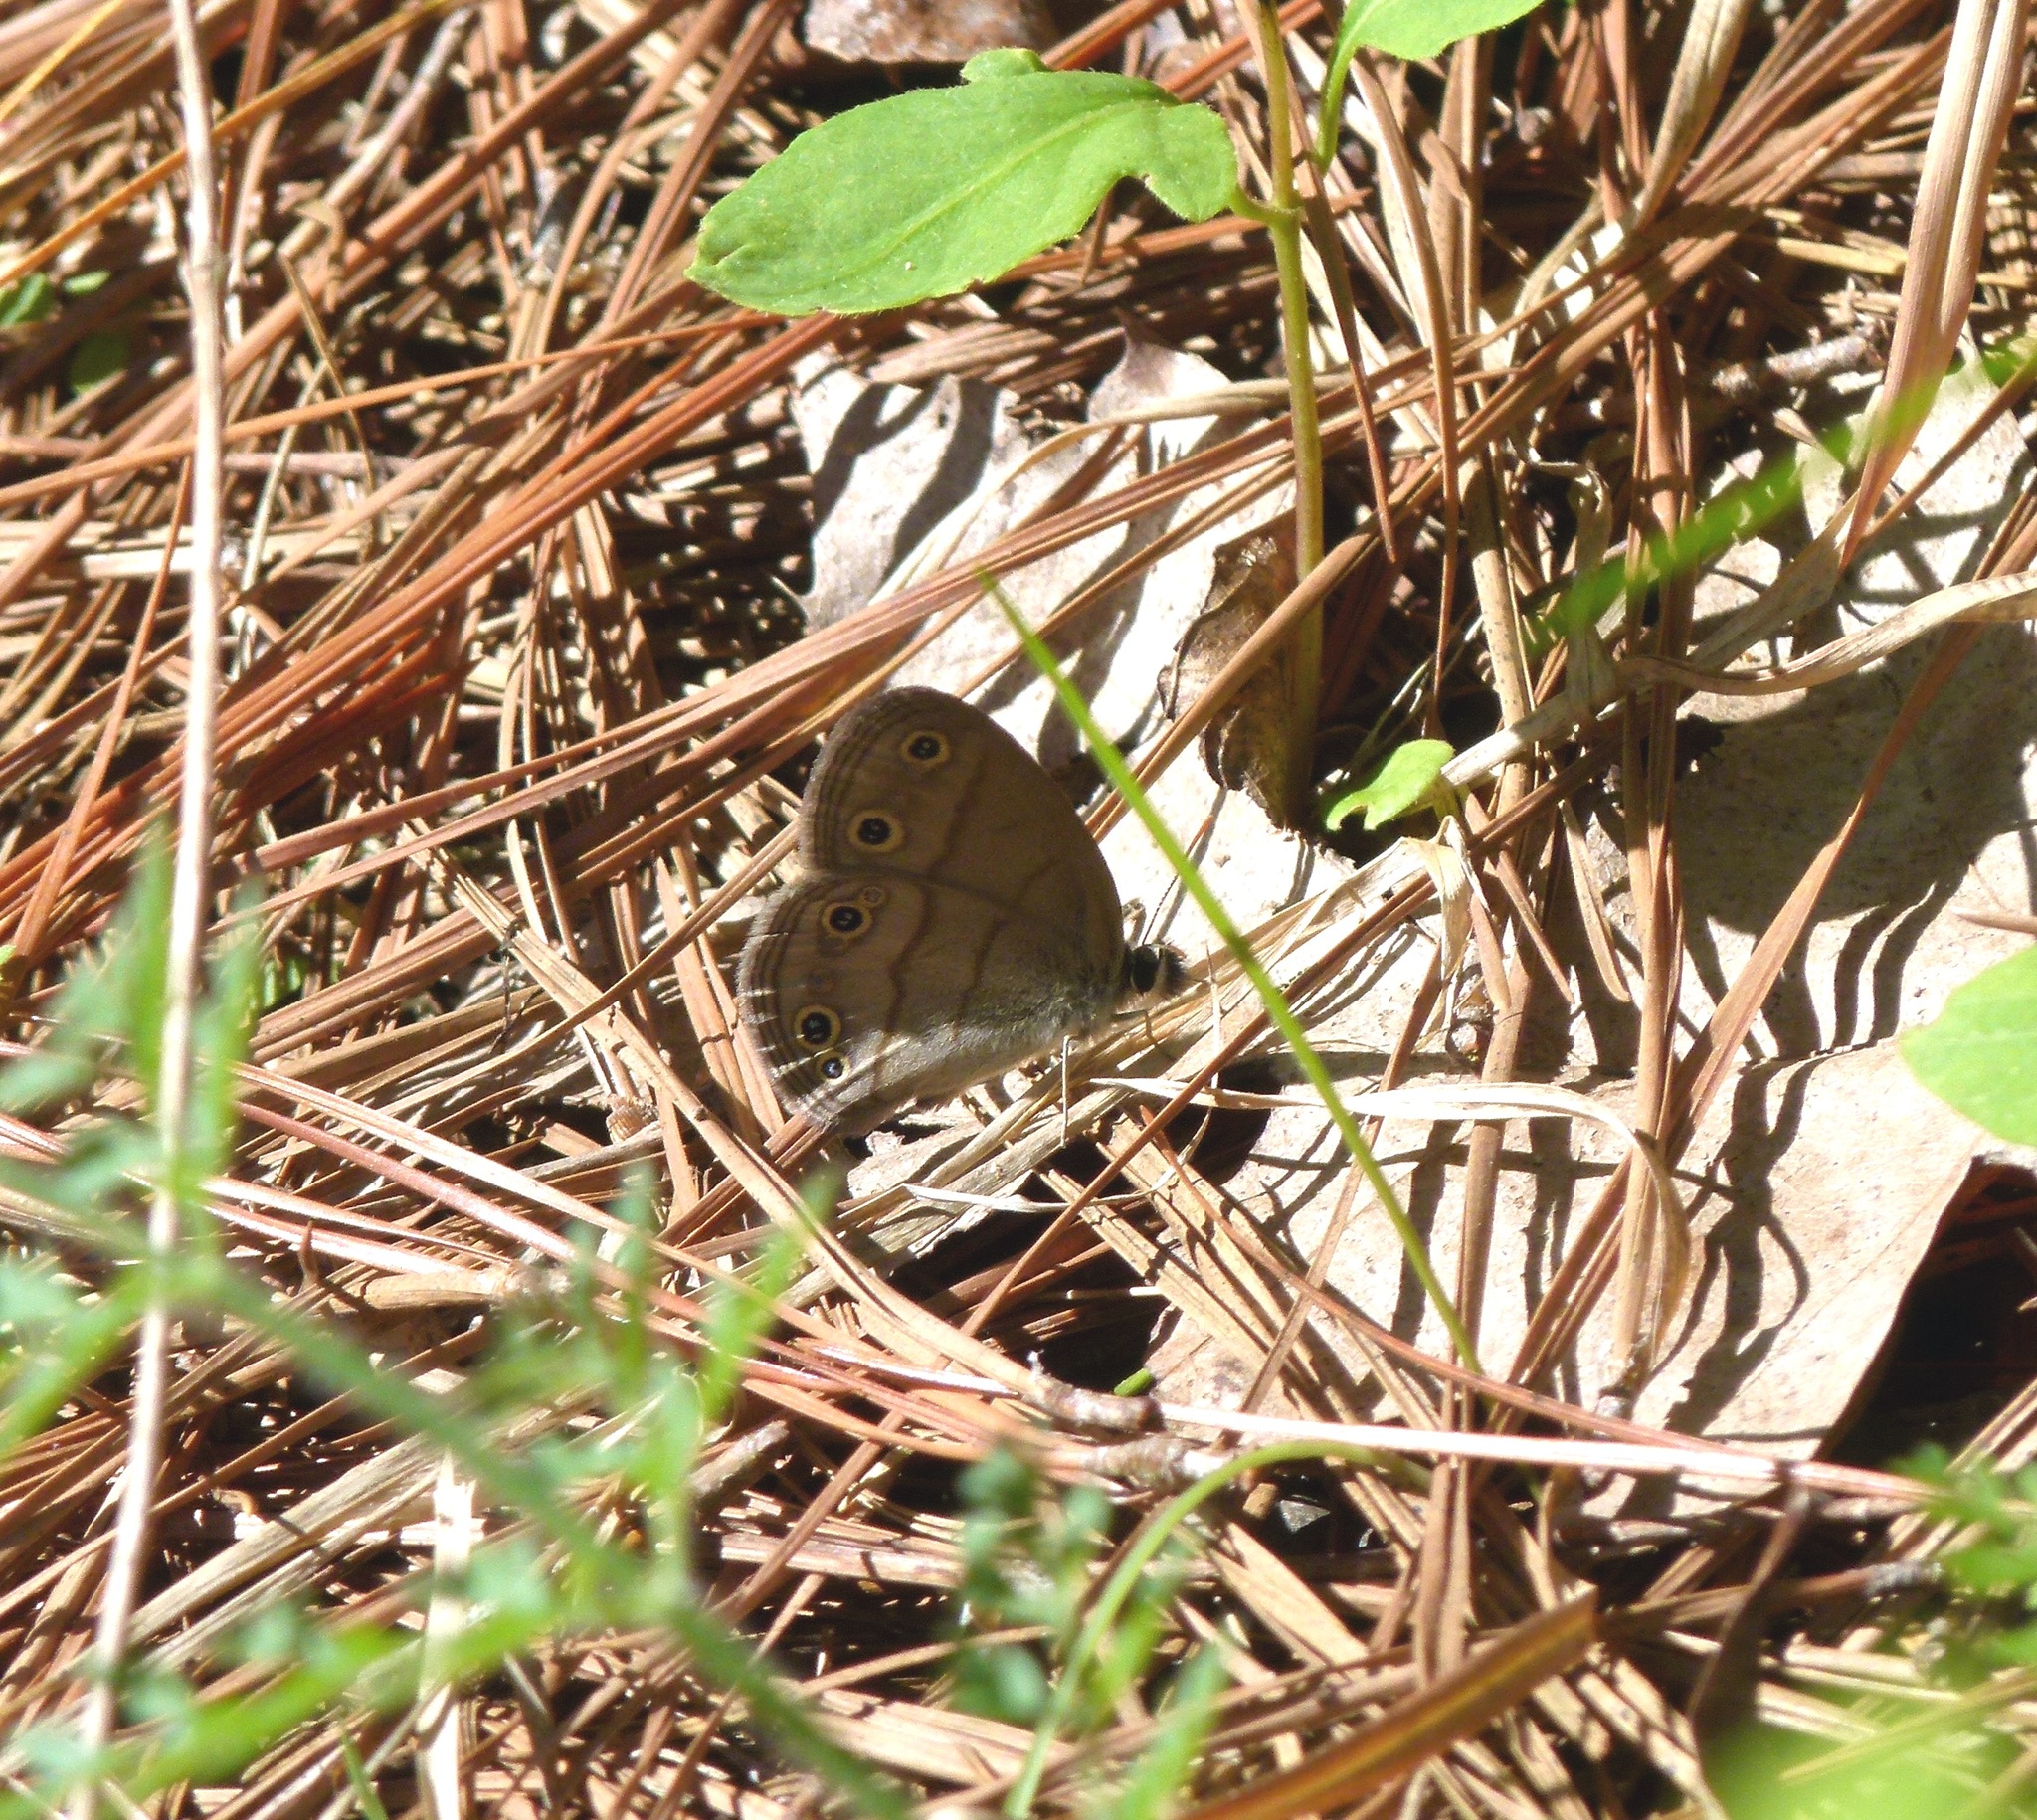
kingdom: Animalia
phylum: Arthropoda
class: Insecta
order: Lepidoptera
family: Nymphalidae
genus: Euptychia
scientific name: Euptychia cymela
